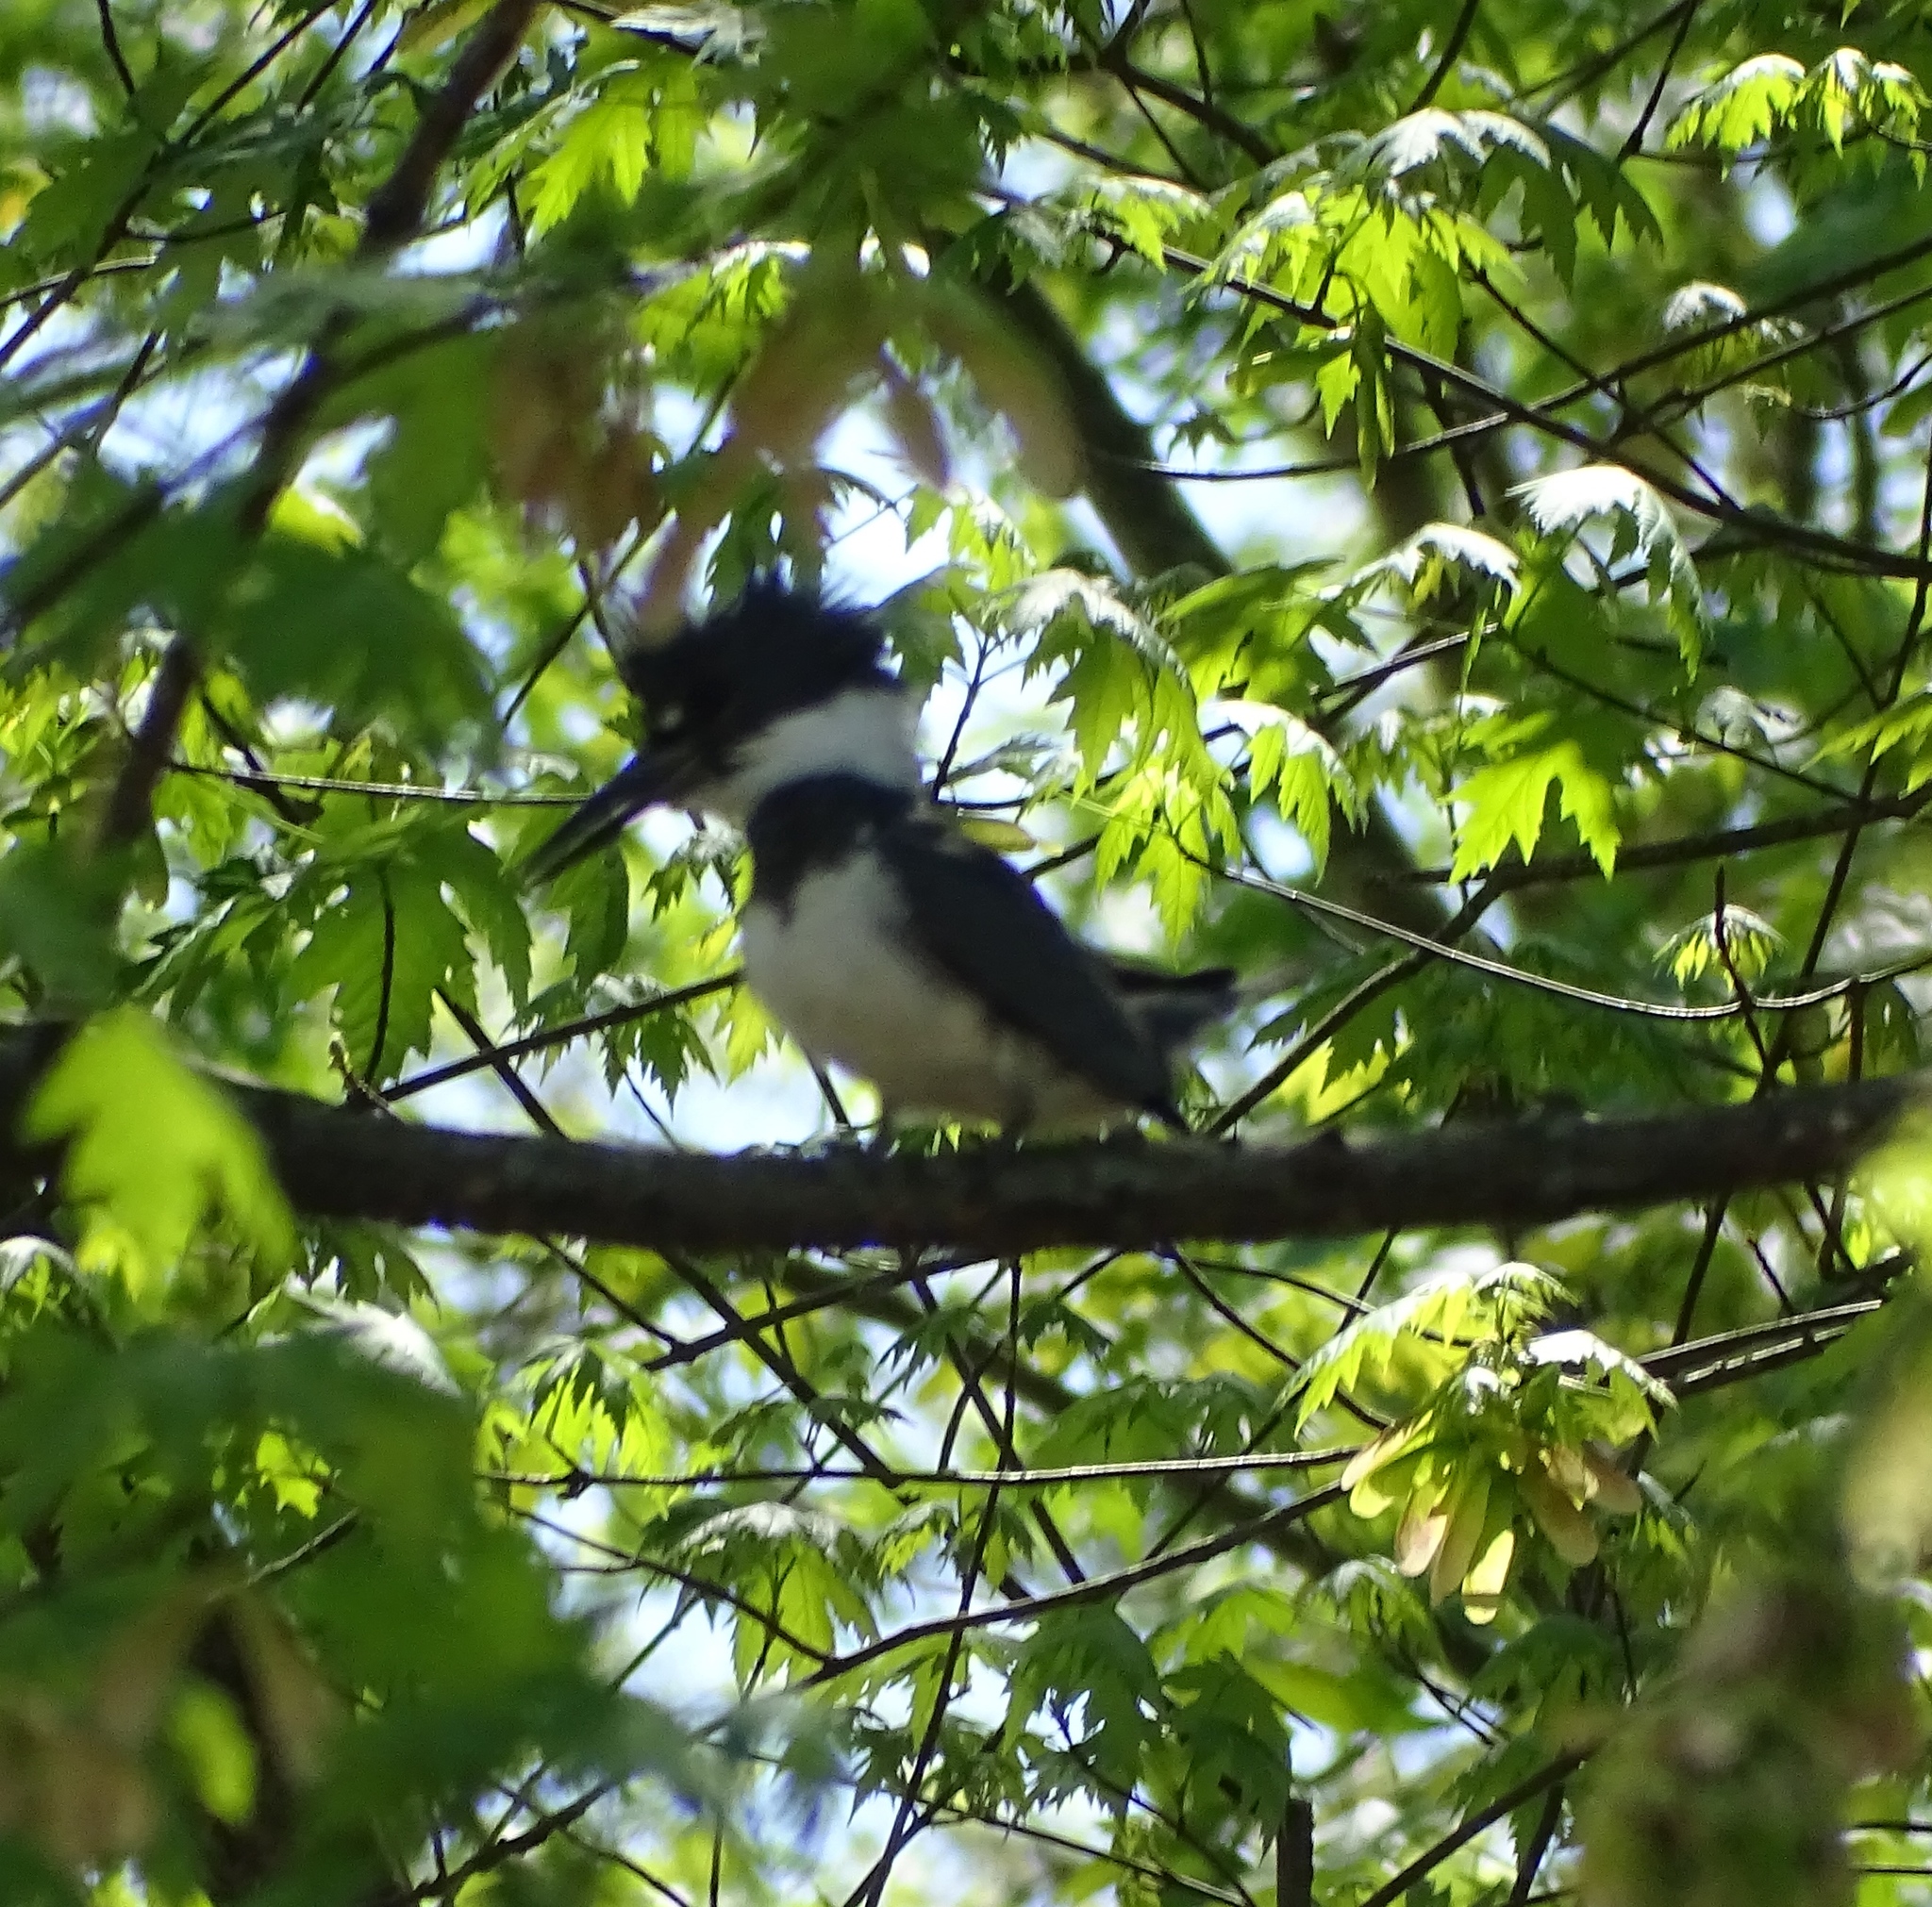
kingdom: Animalia
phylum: Chordata
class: Aves
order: Coraciiformes
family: Alcedinidae
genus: Megaceryle
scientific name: Megaceryle alcyon
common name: Belted kingfisher
